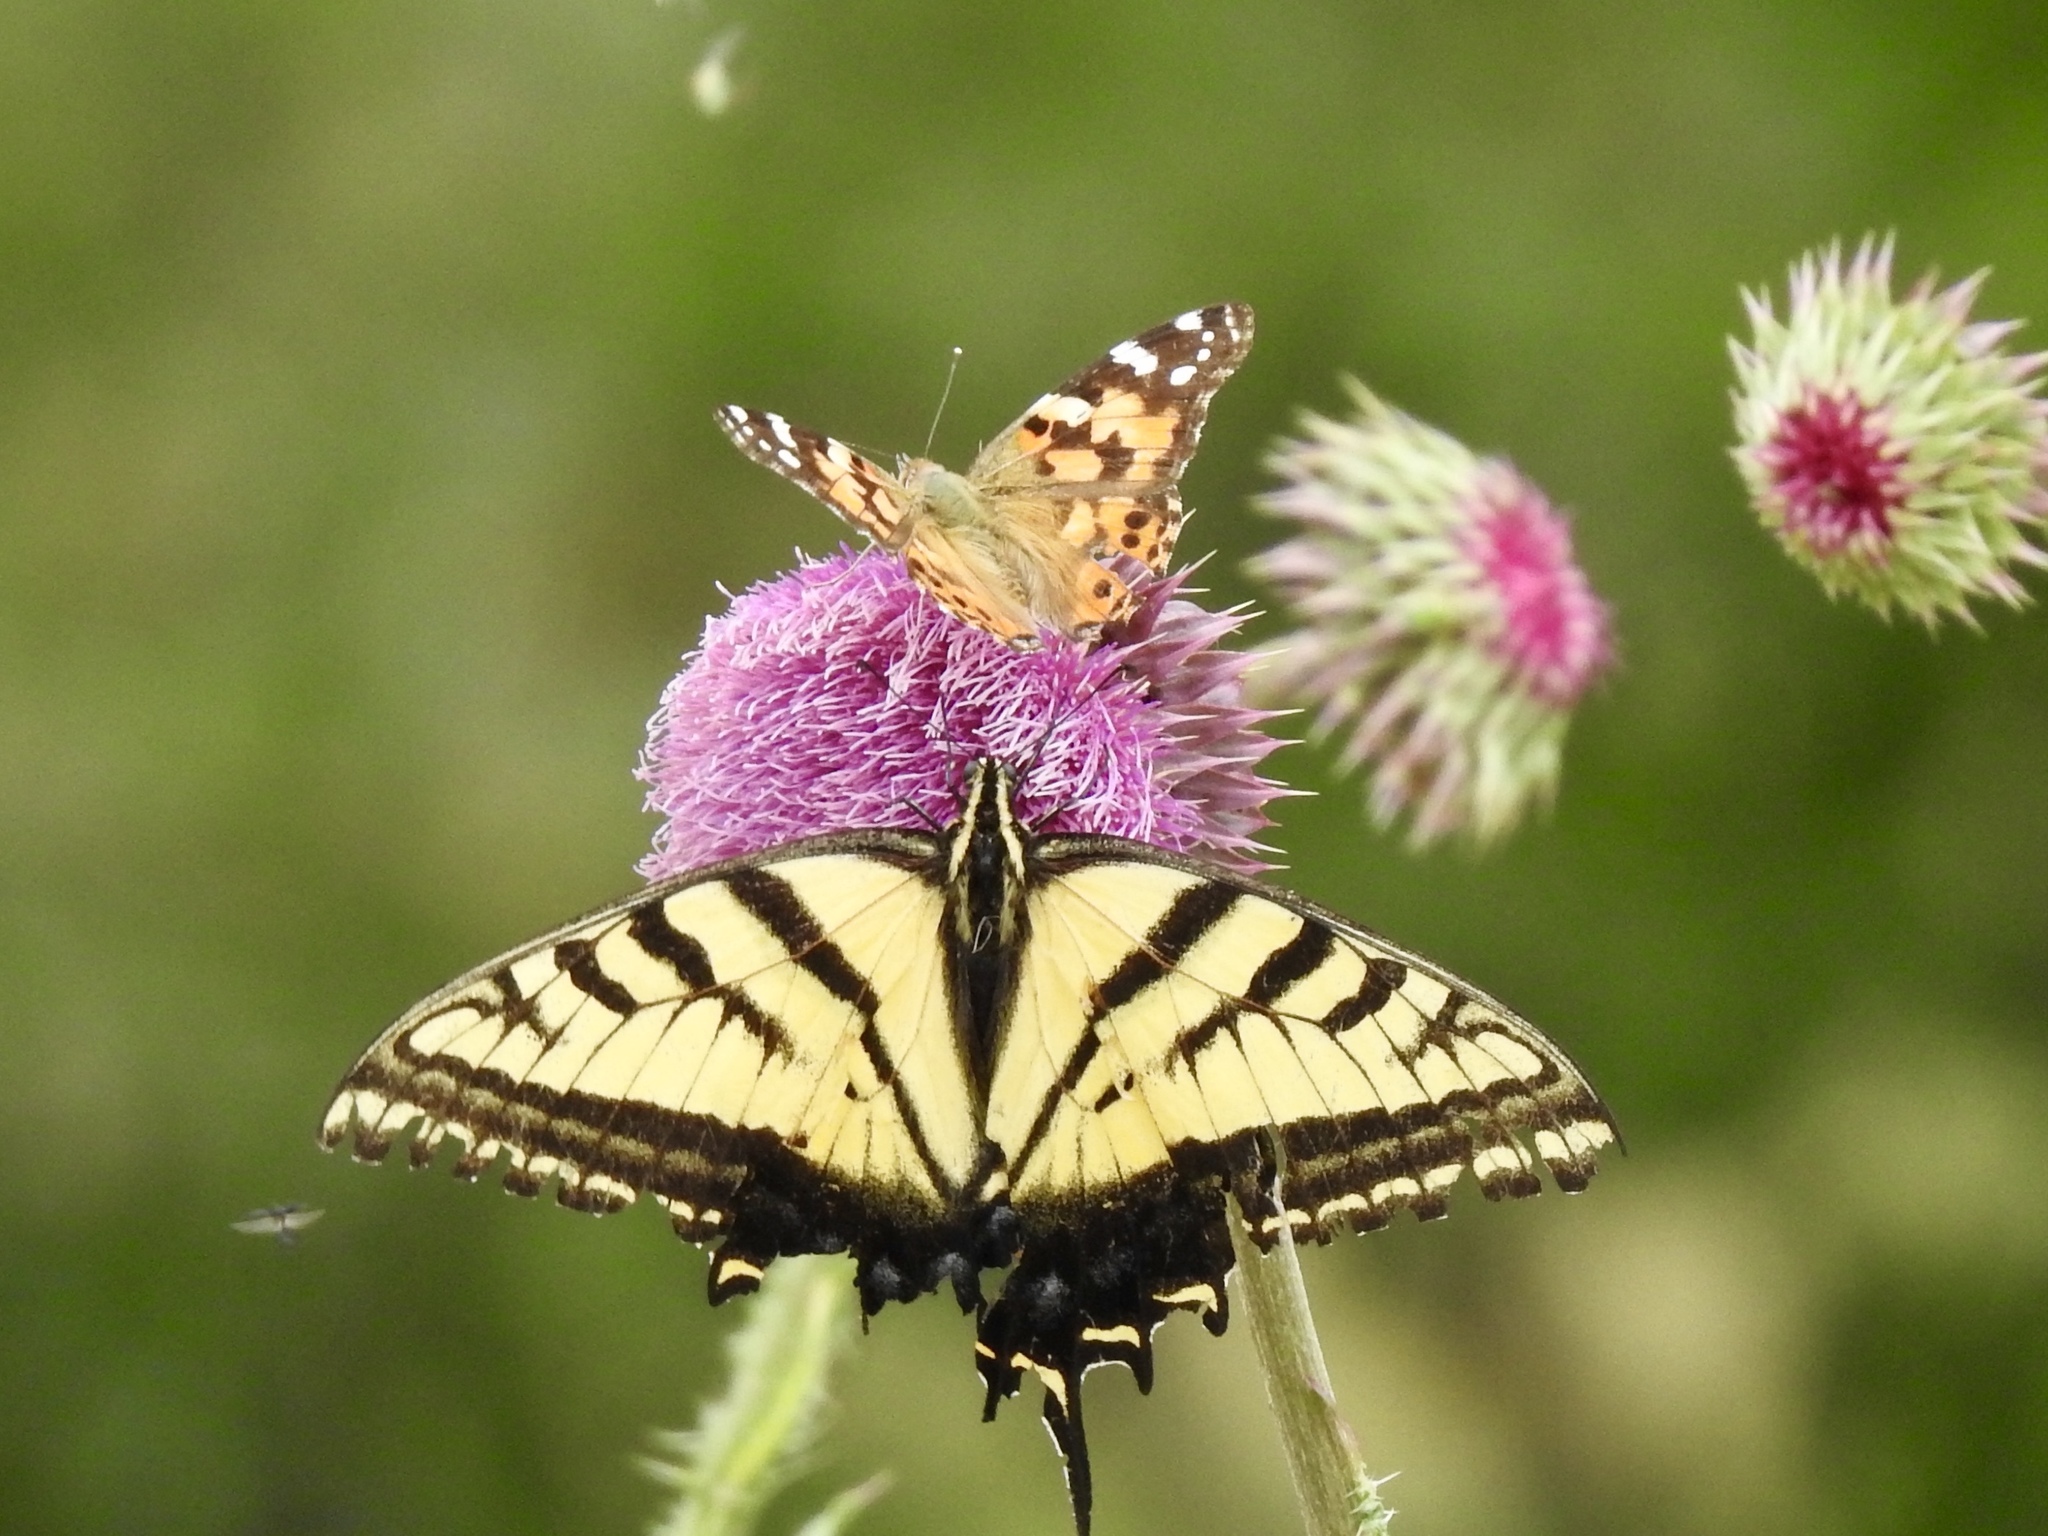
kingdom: Animalia
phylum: Arthropoda
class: Insecta
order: Lepidoptera
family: Papilionidae
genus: Papilio
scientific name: Papilio multicaudata
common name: Two-tailed tiger swallowtail
